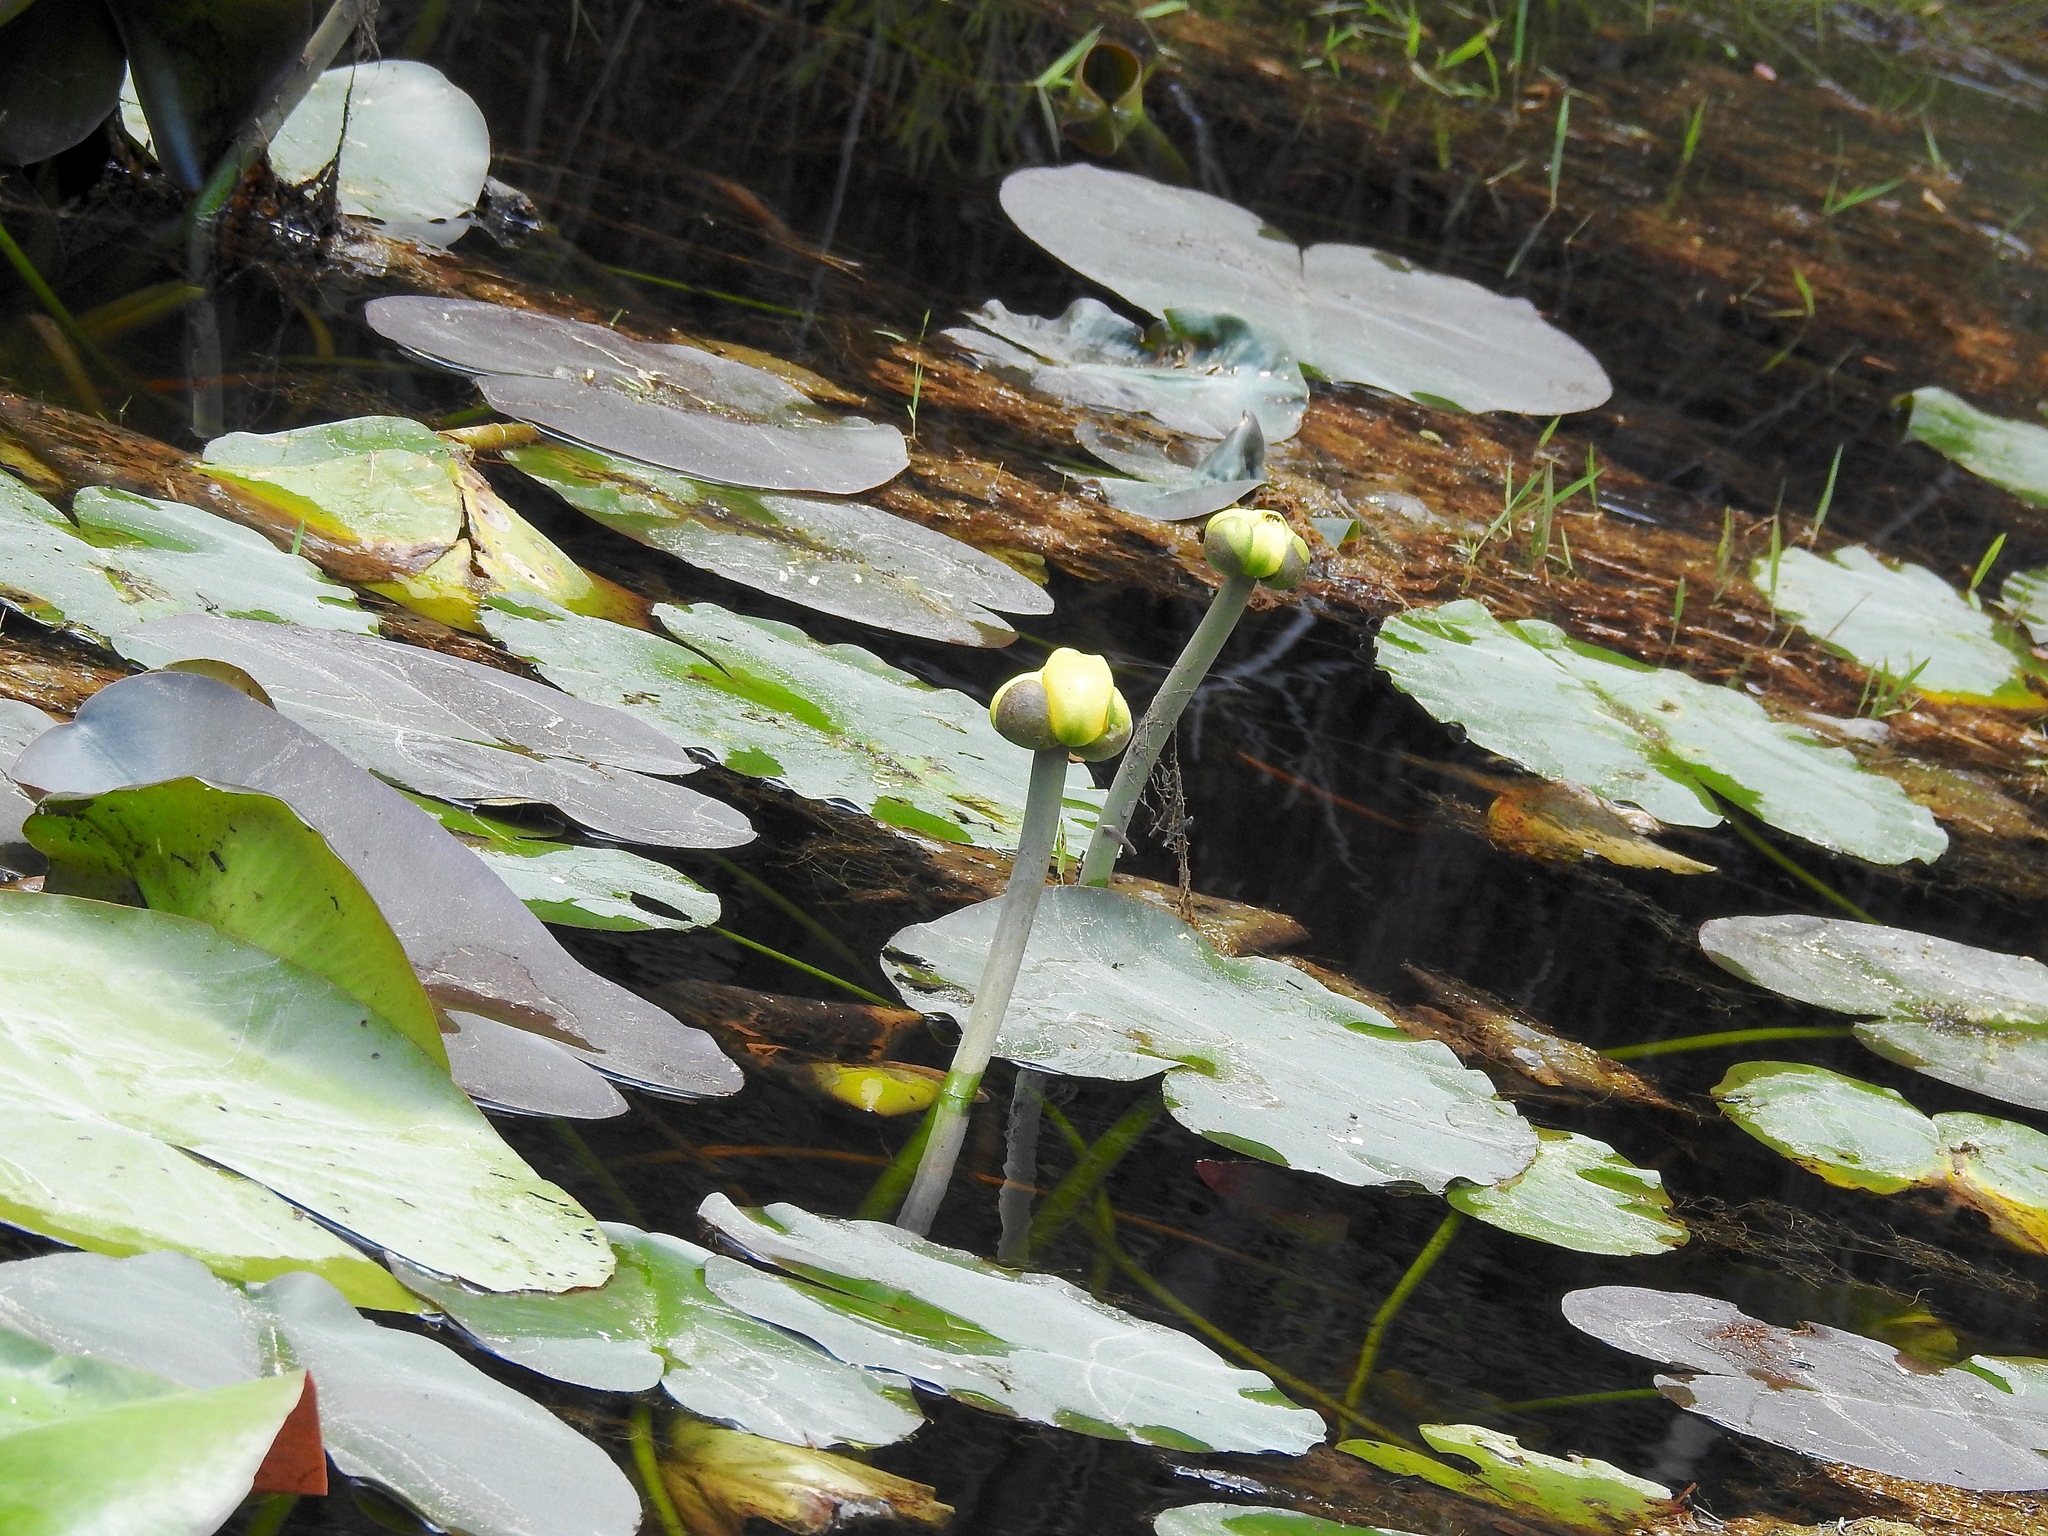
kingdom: Plantae
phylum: Tracheophyta
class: Magnoliopsida
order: Nymphaeales
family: Nymphaeaceae
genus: Nuphar
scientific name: Nuphar advena
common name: Spatter-dock
